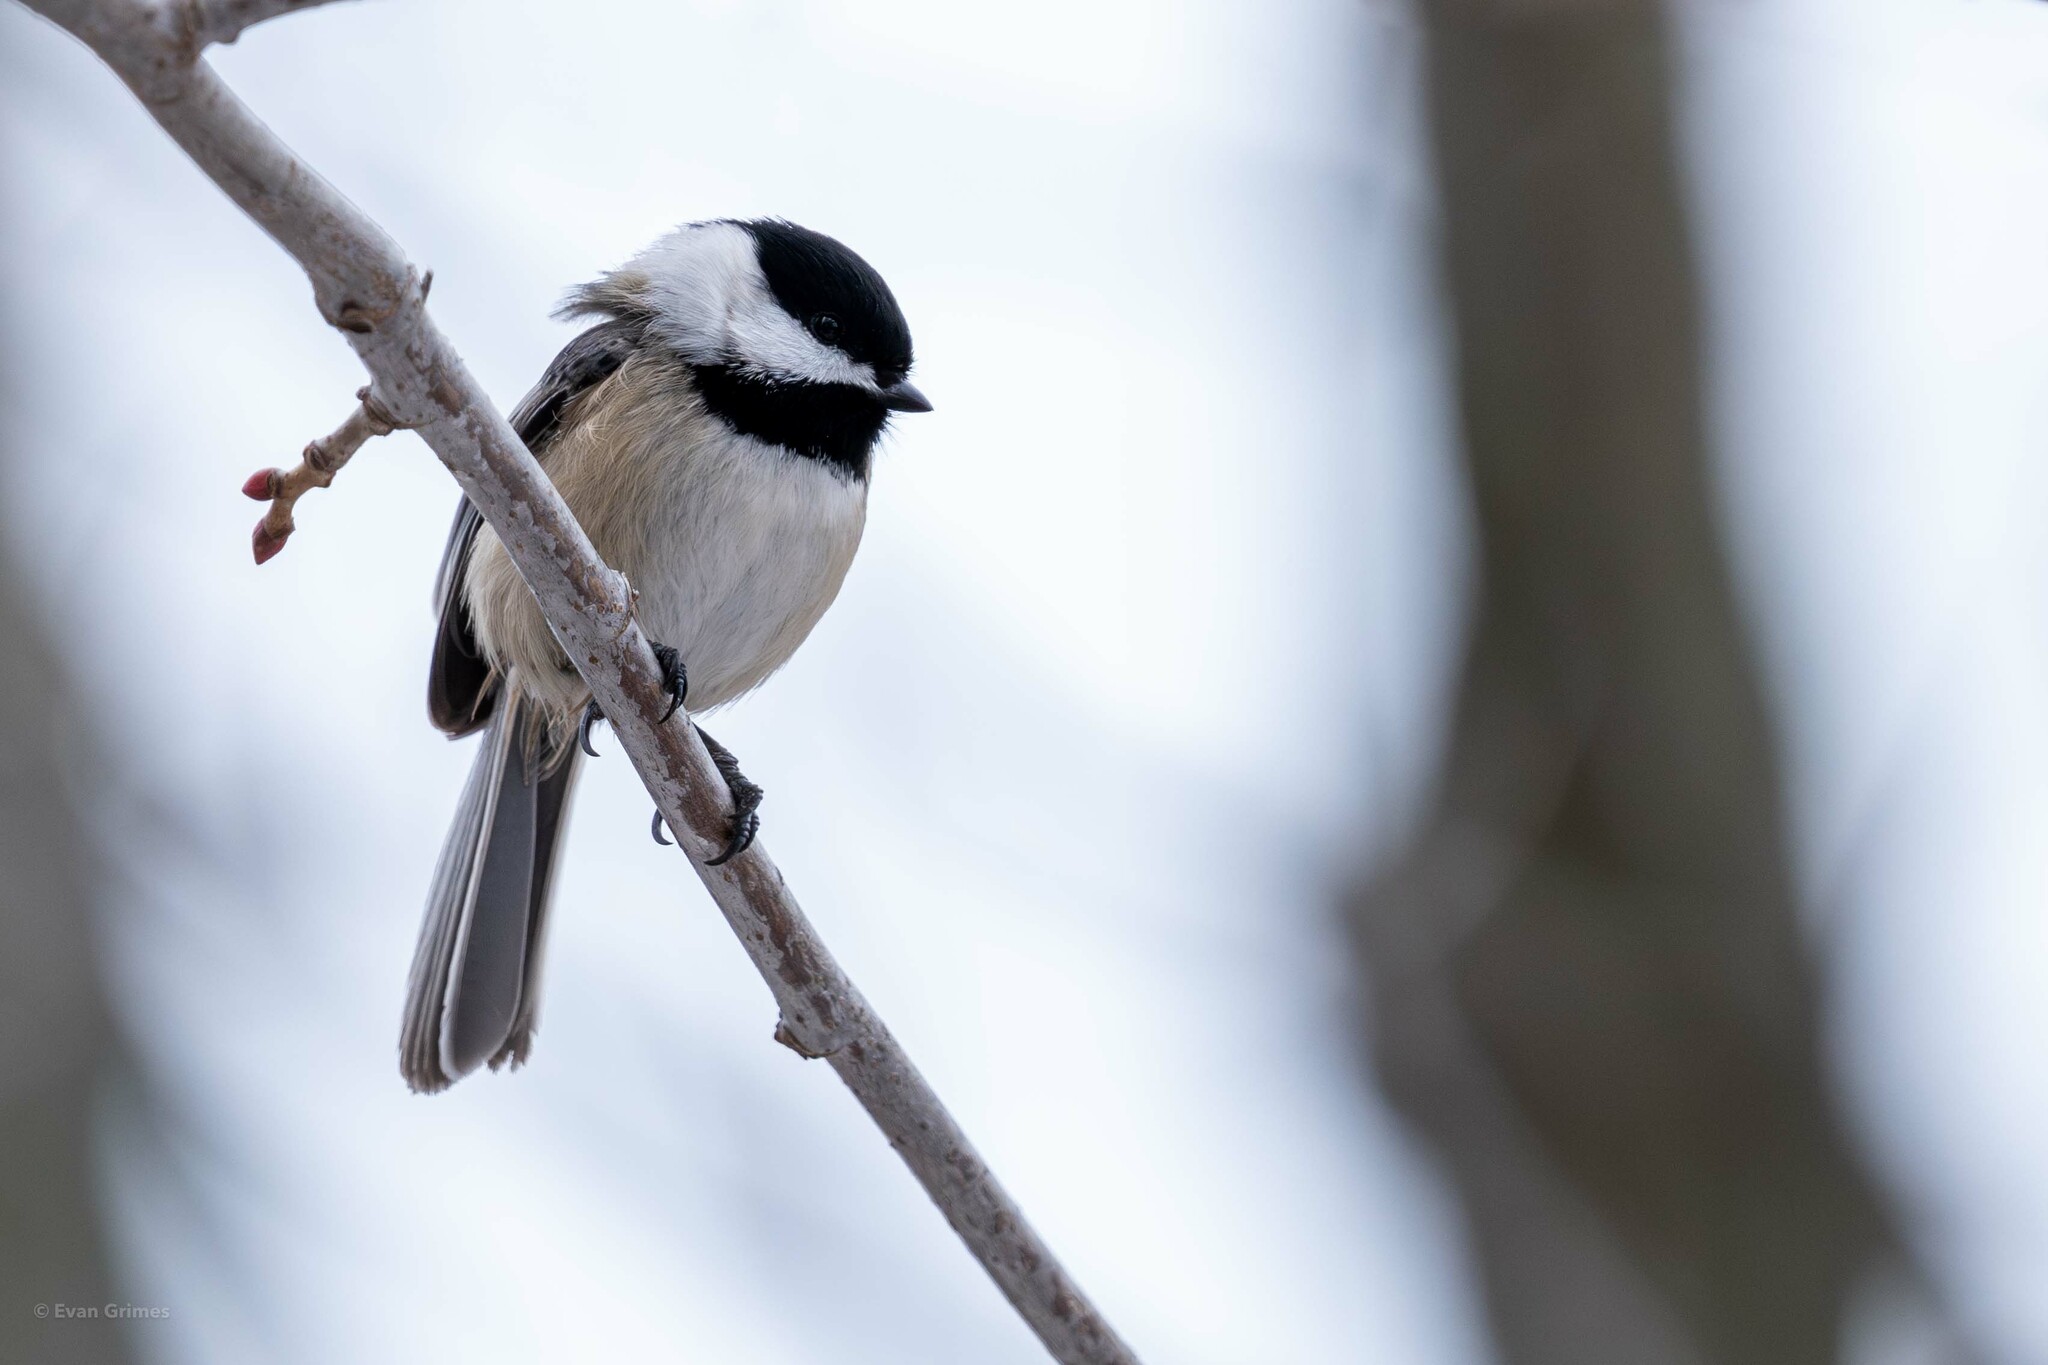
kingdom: Animalia
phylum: Chordata
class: Aves
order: Passeriformes
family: Paridae
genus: Poecile
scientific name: Poecile atricapillus
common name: Black-capped chickadee
